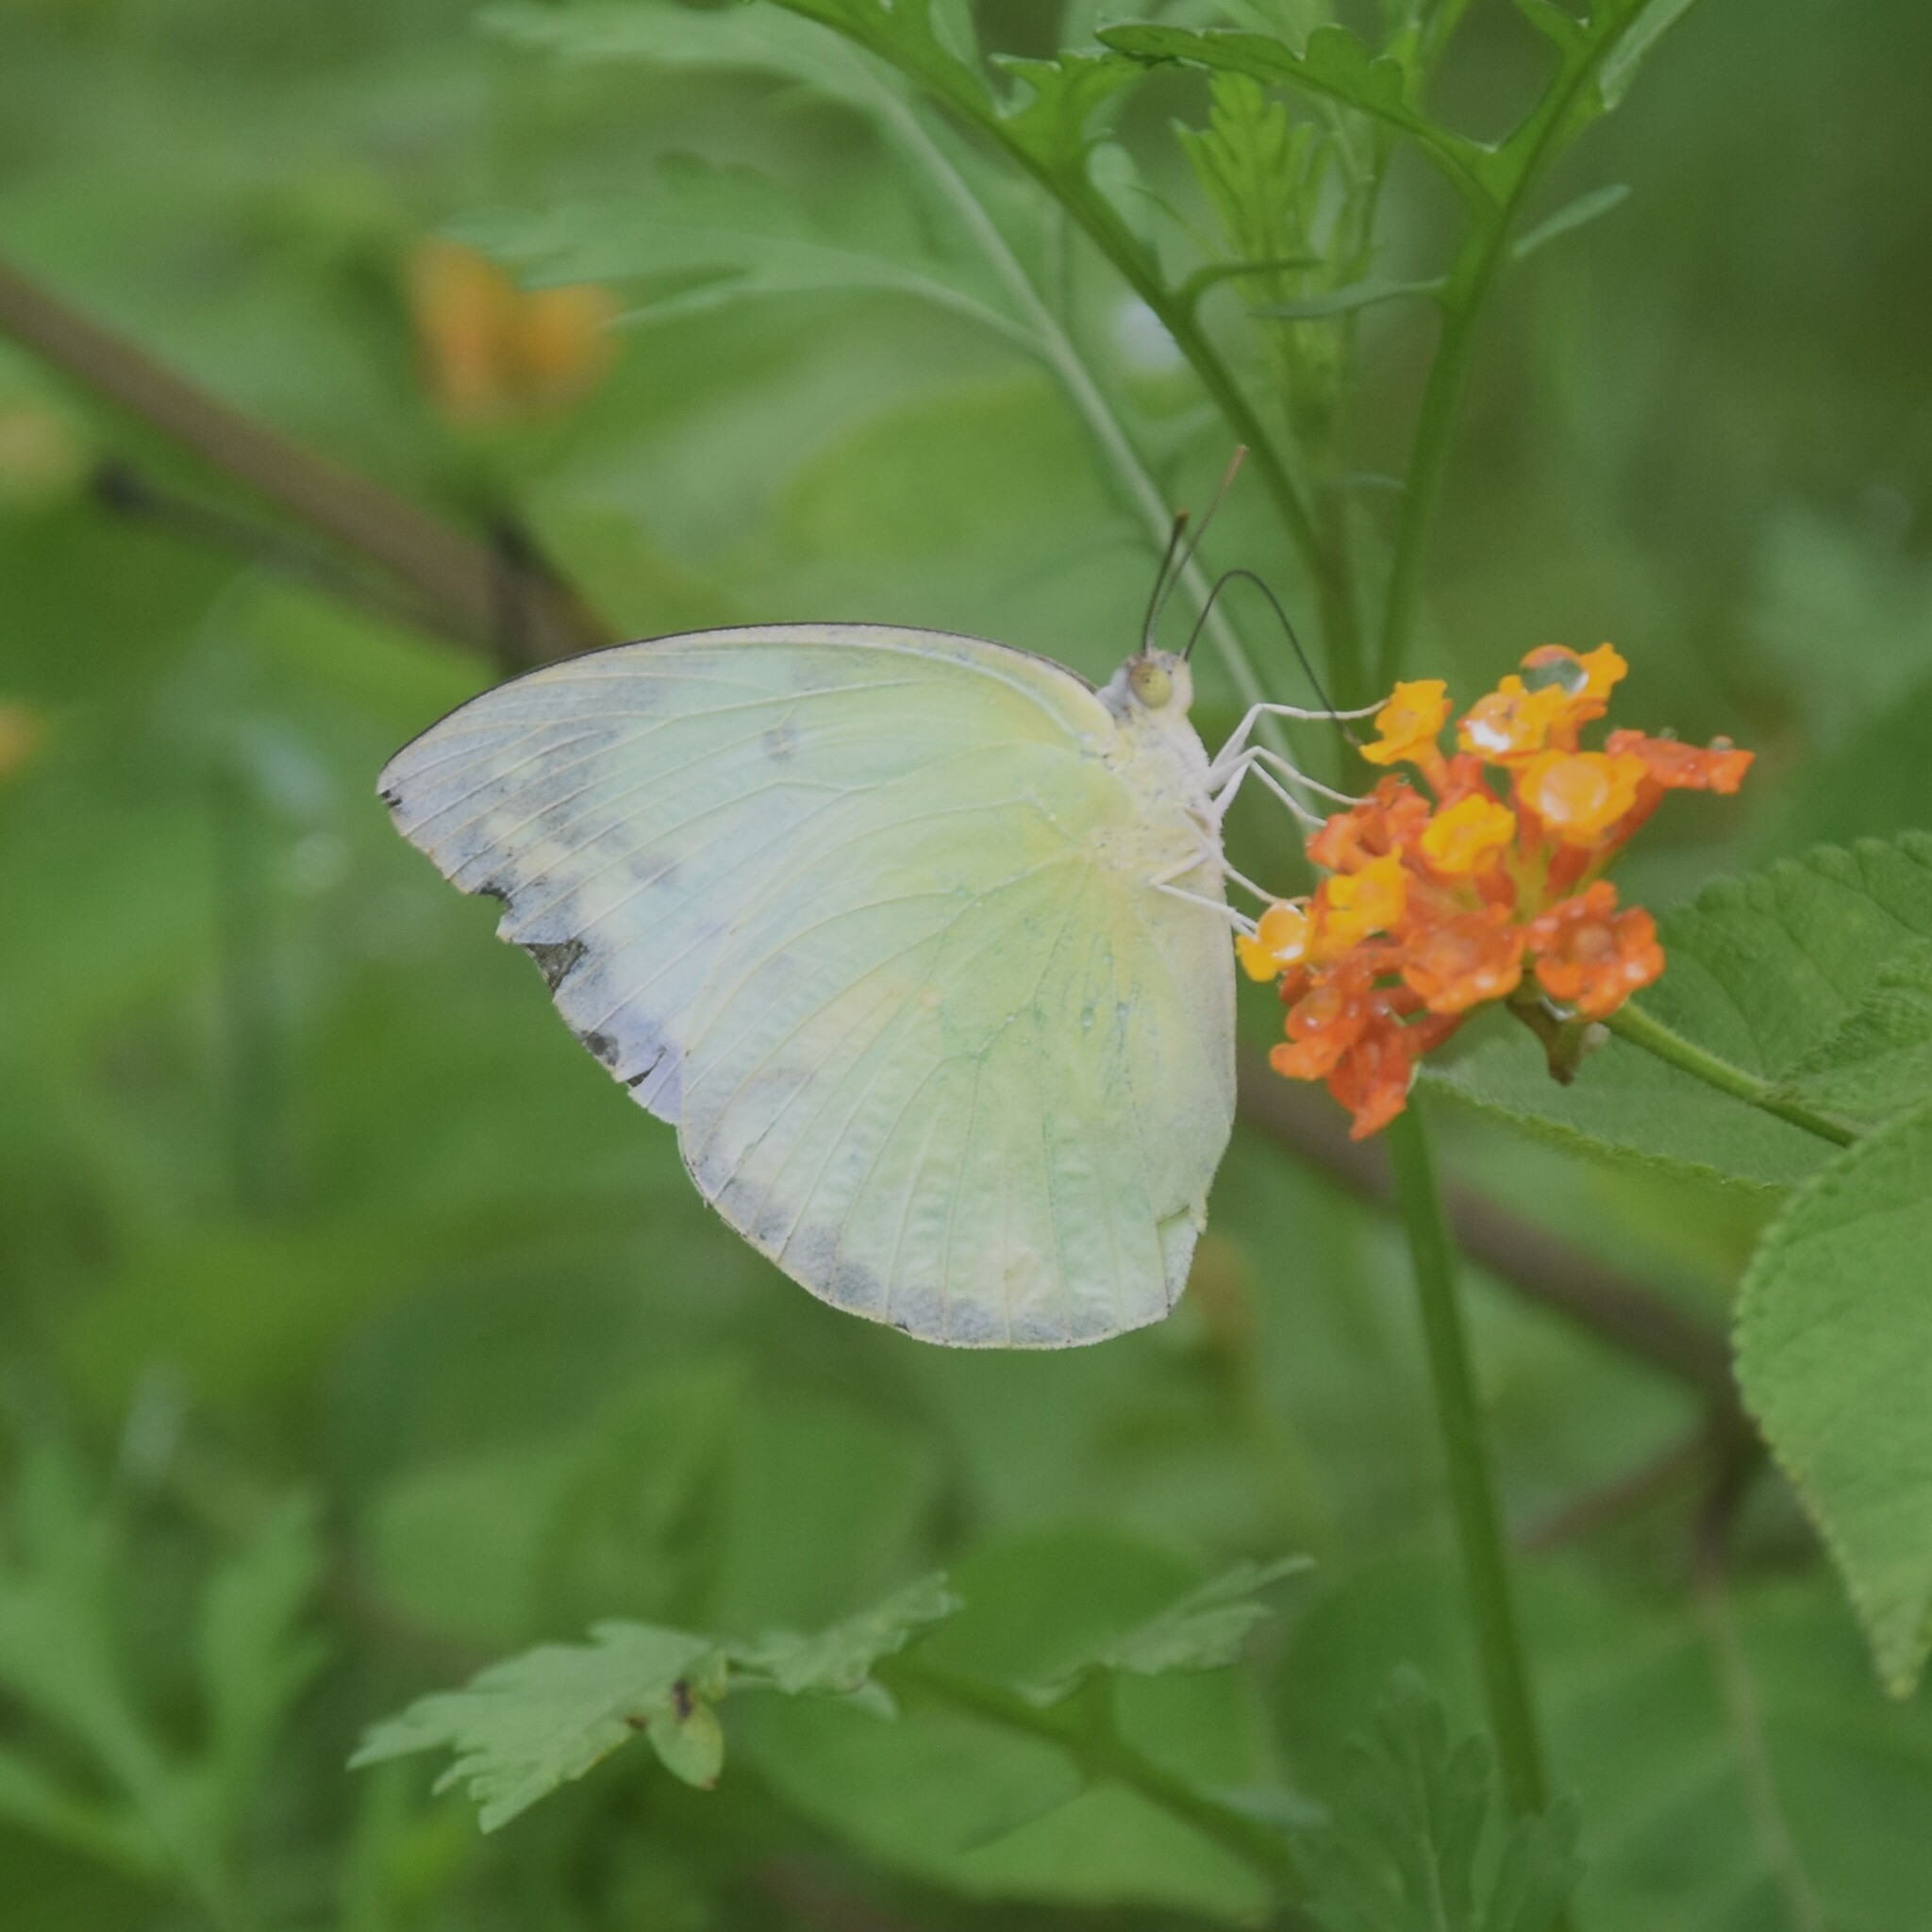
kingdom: Animalia
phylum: Arthropoda
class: Insecta
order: Lepidoptera
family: Pieridae
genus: Catopsilia
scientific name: Catopsilia pomona
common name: Common emigrant
